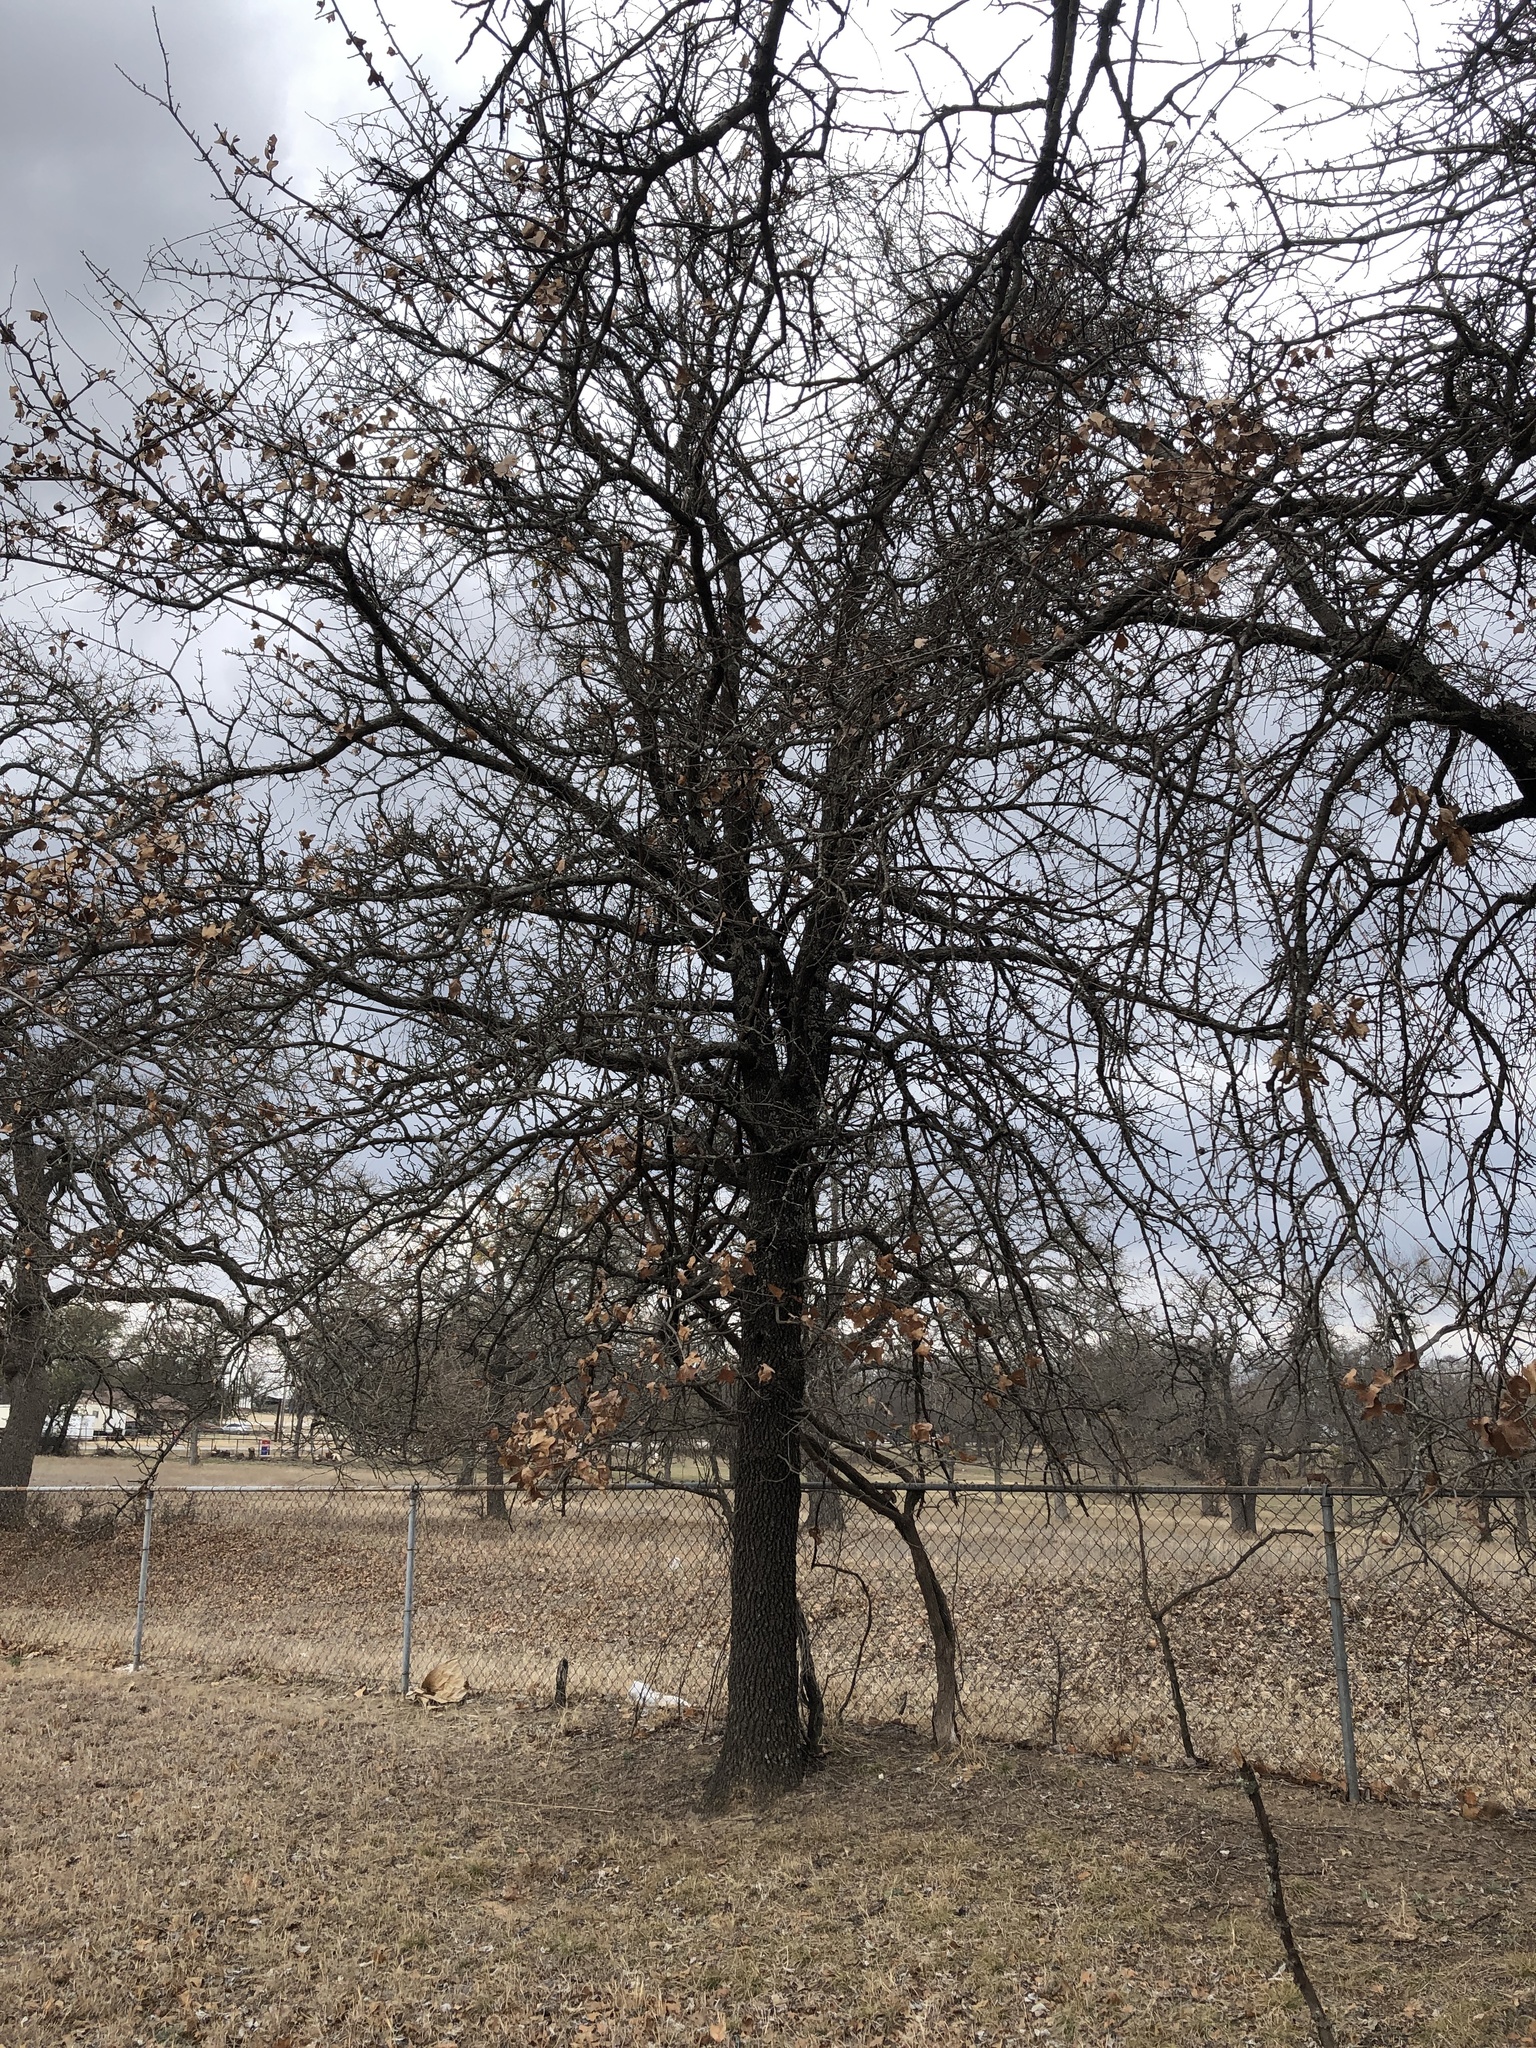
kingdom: Plantae
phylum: Tracheophyta
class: Magnoliopsida
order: Fagales
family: Fagaceae
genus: Quercus
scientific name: Quercus marilandica
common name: Blackjack oak
